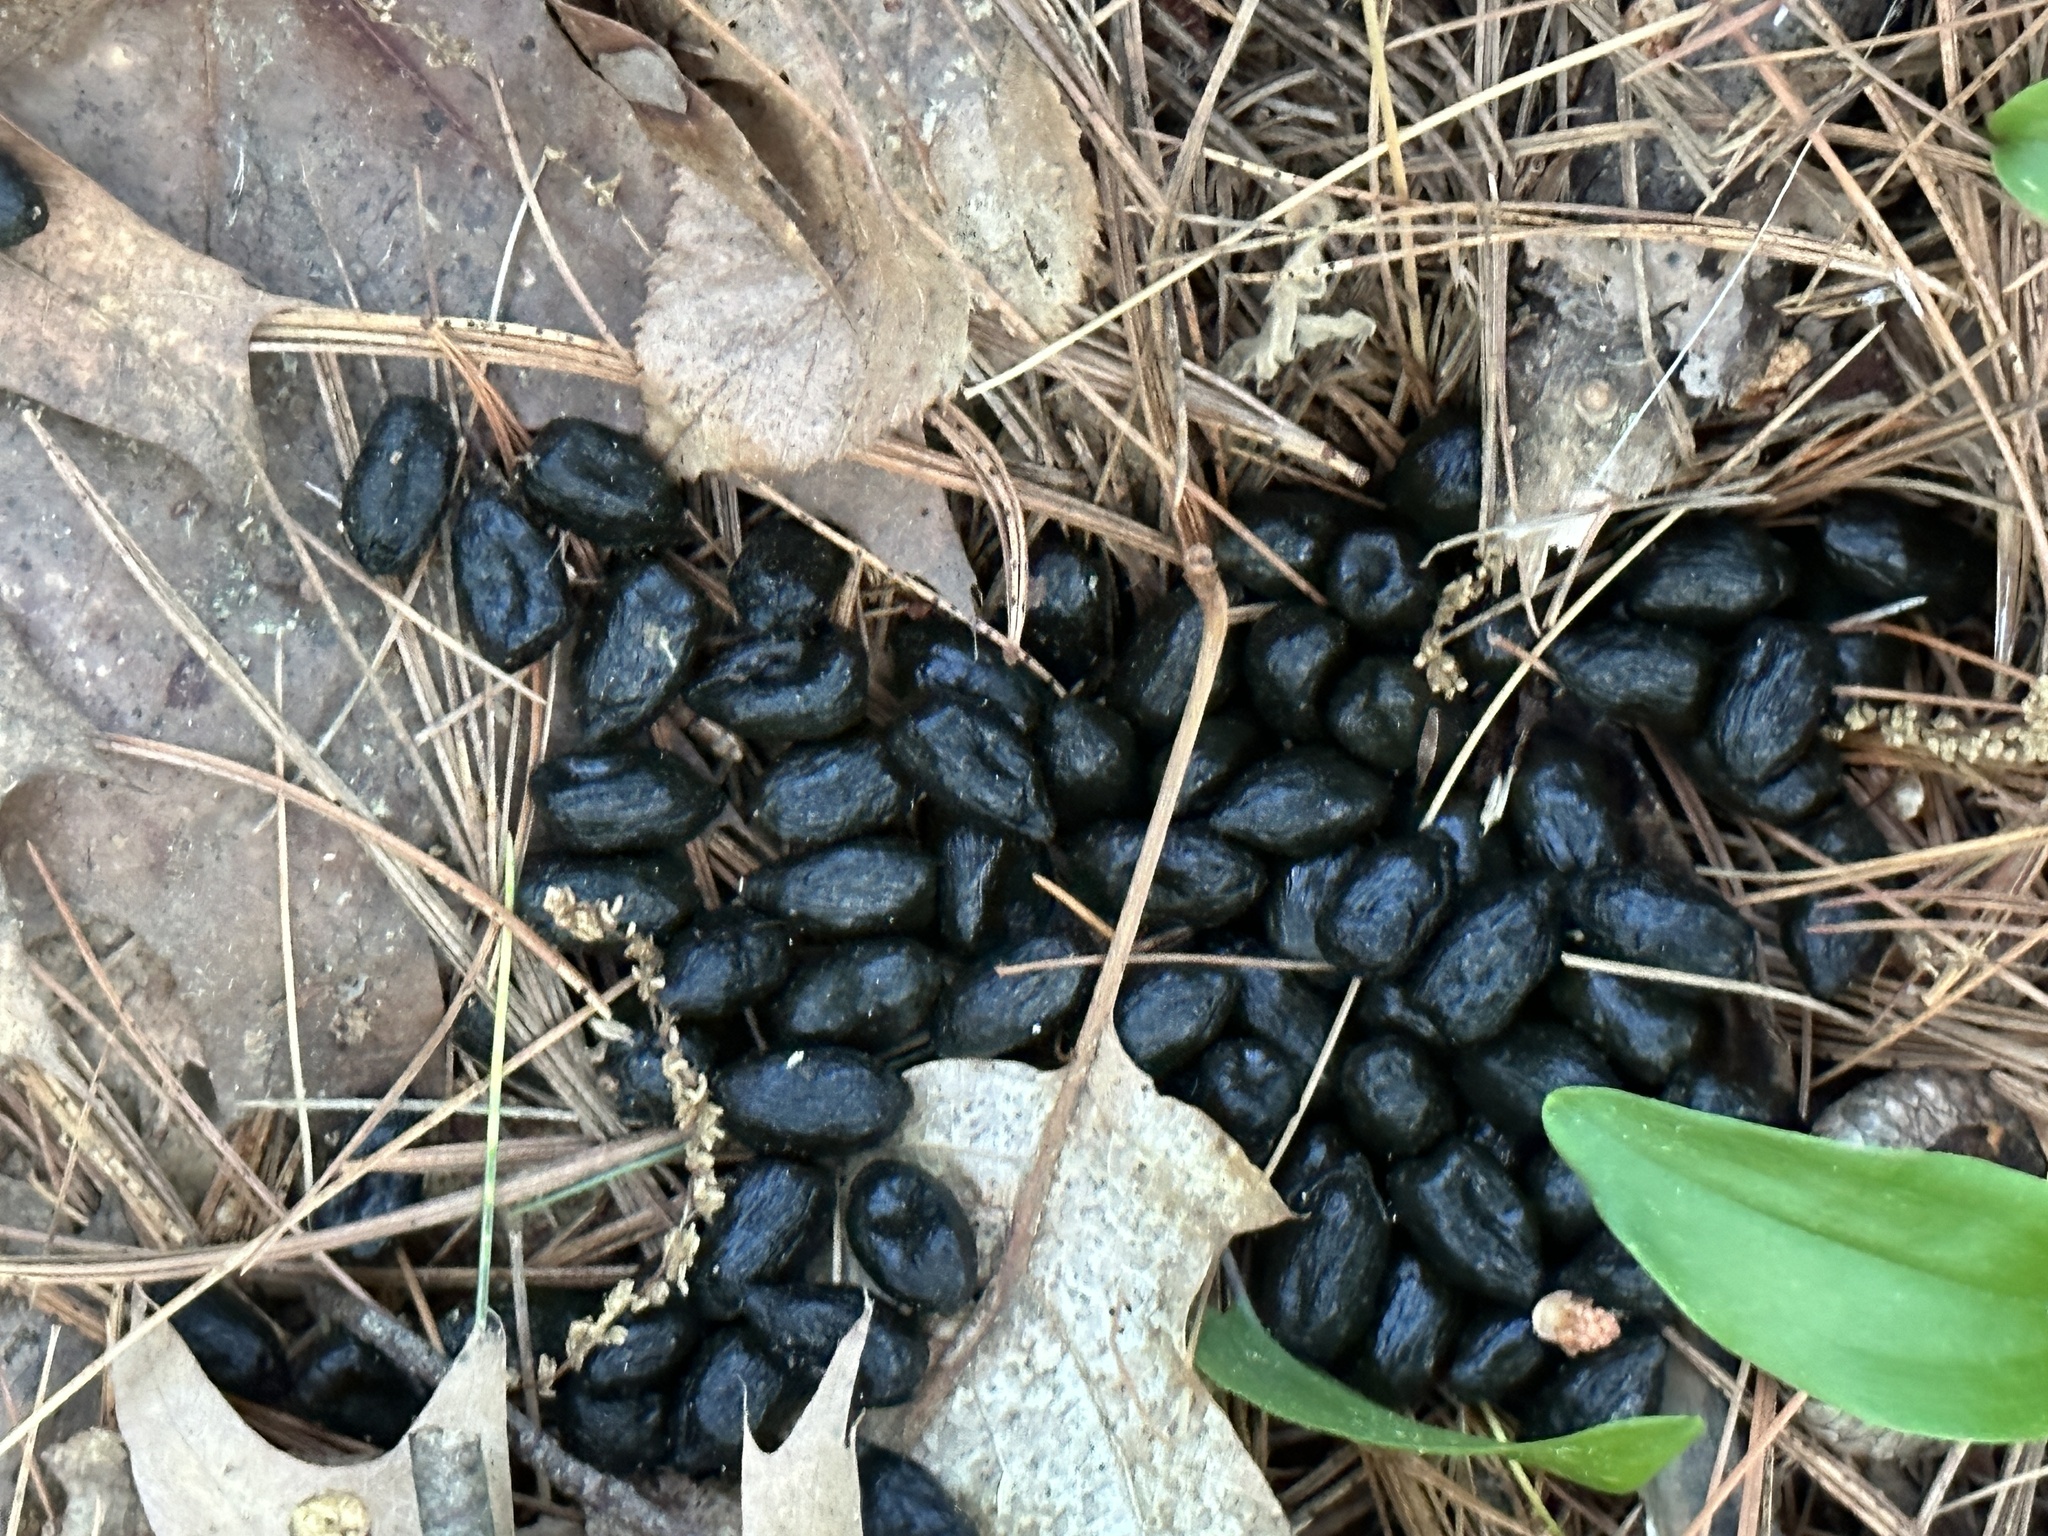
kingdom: Animalia
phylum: Chordata
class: Mammalia
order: Artiodactyla
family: Cervidae
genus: Odocoileus
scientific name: Odocoileus virginianus
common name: White-tailed deer
